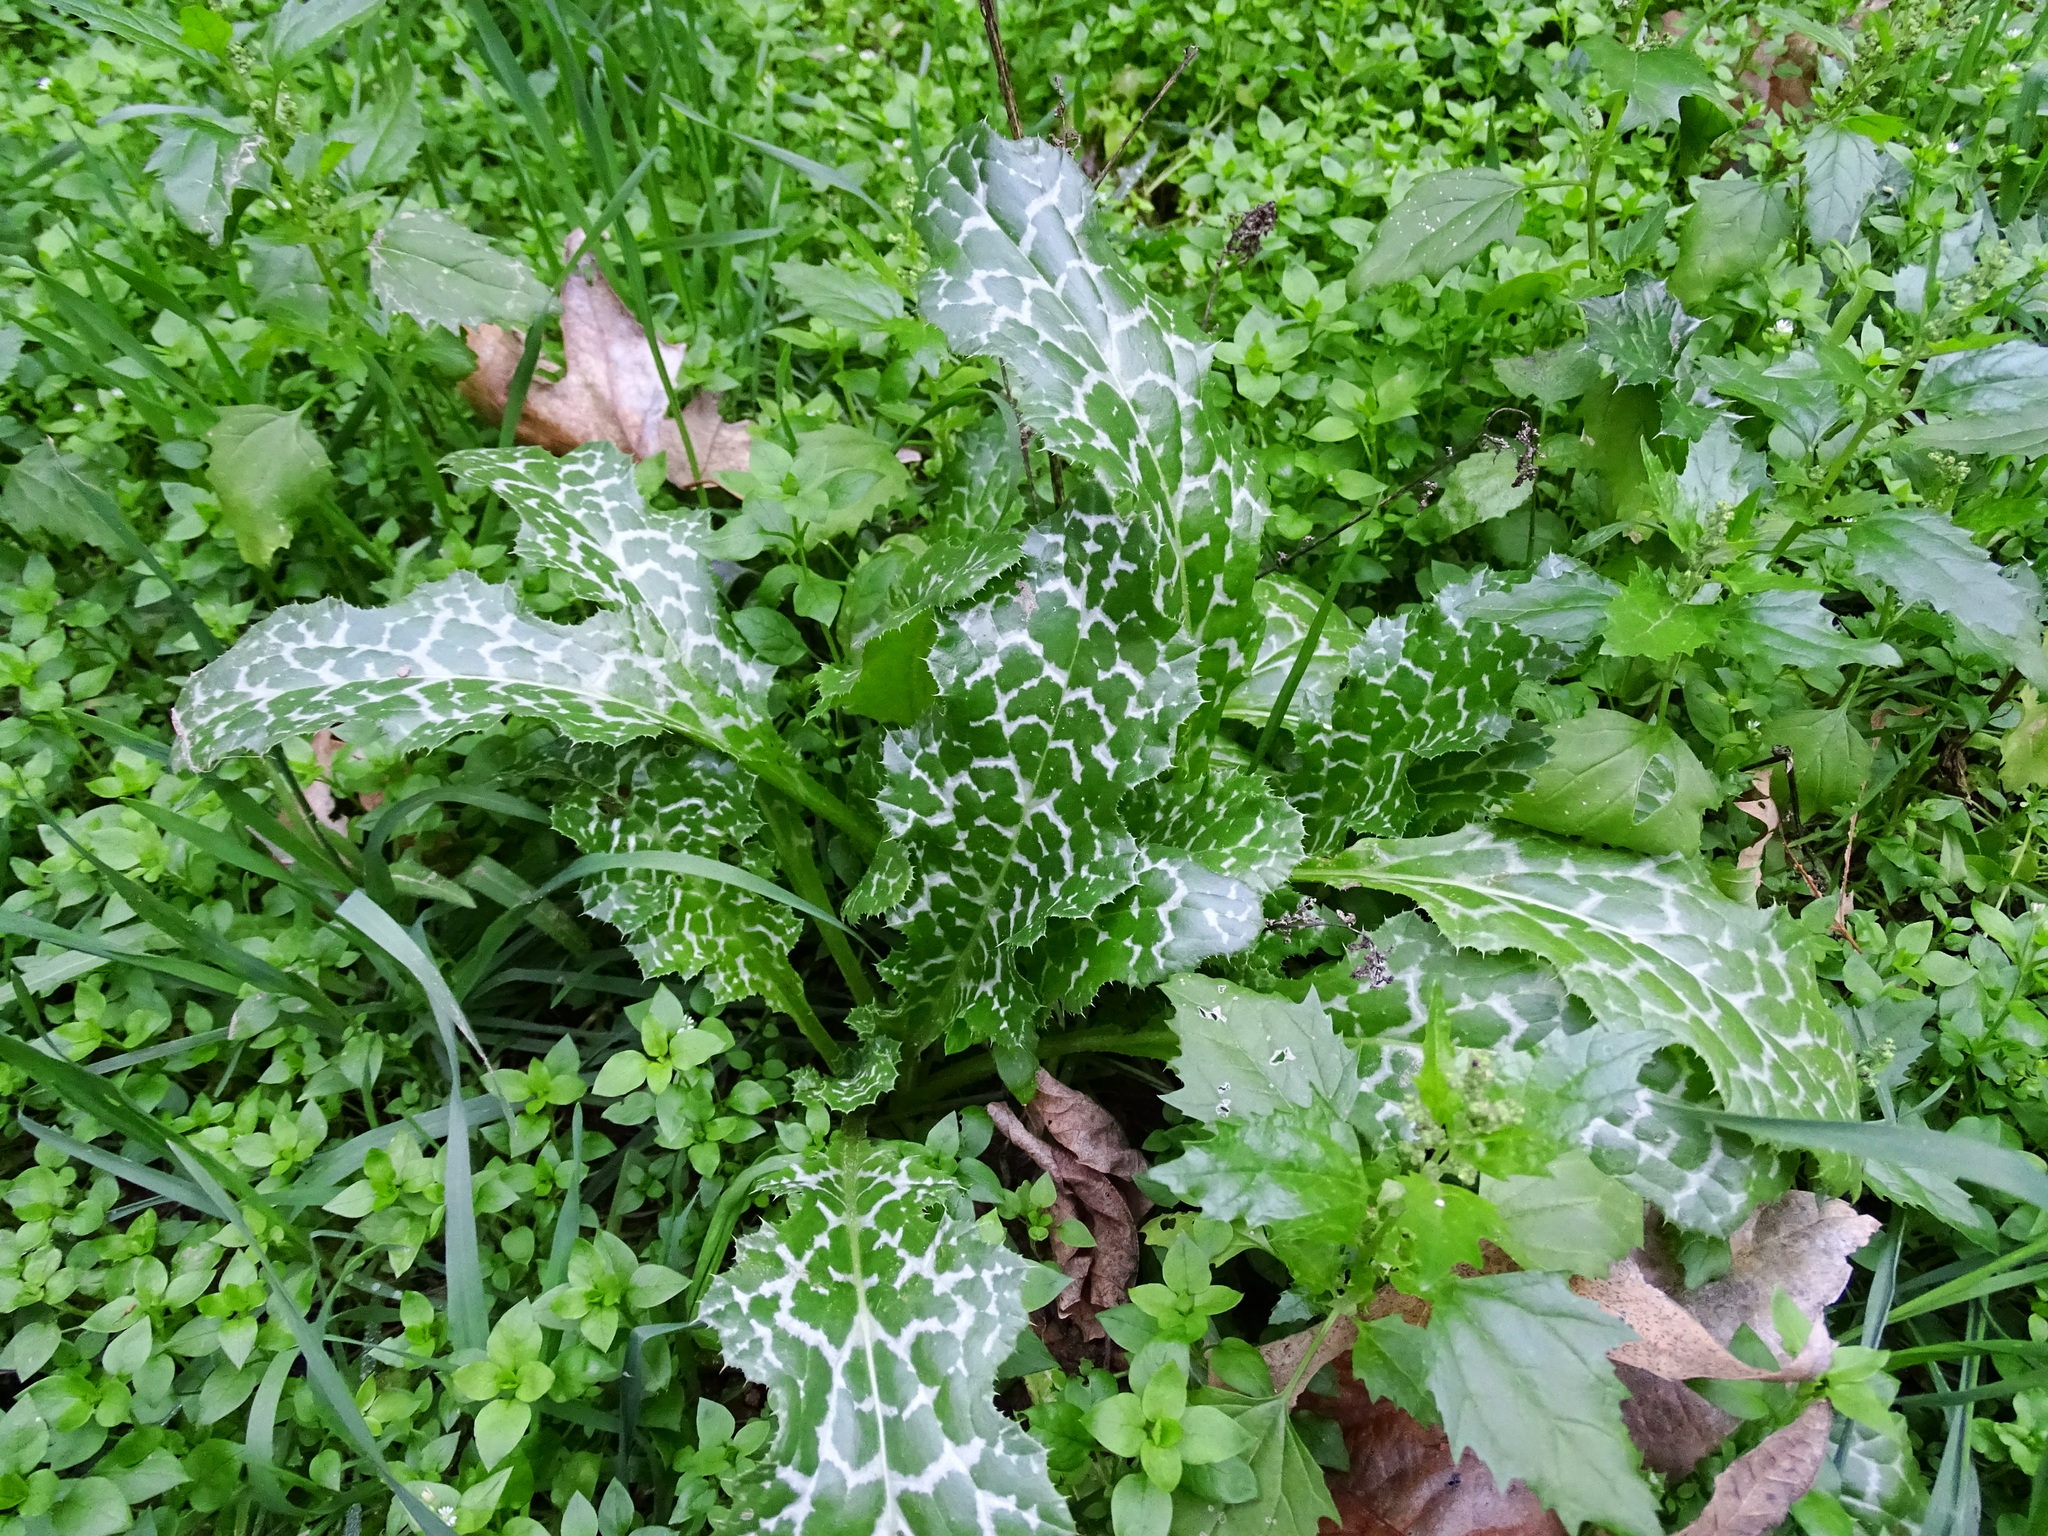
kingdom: Plantae
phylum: Tracheophyta
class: Magnoliopsida
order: Asterales
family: Asteraceae
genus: Silybum
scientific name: Silybum marianum
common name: Milk thistle
